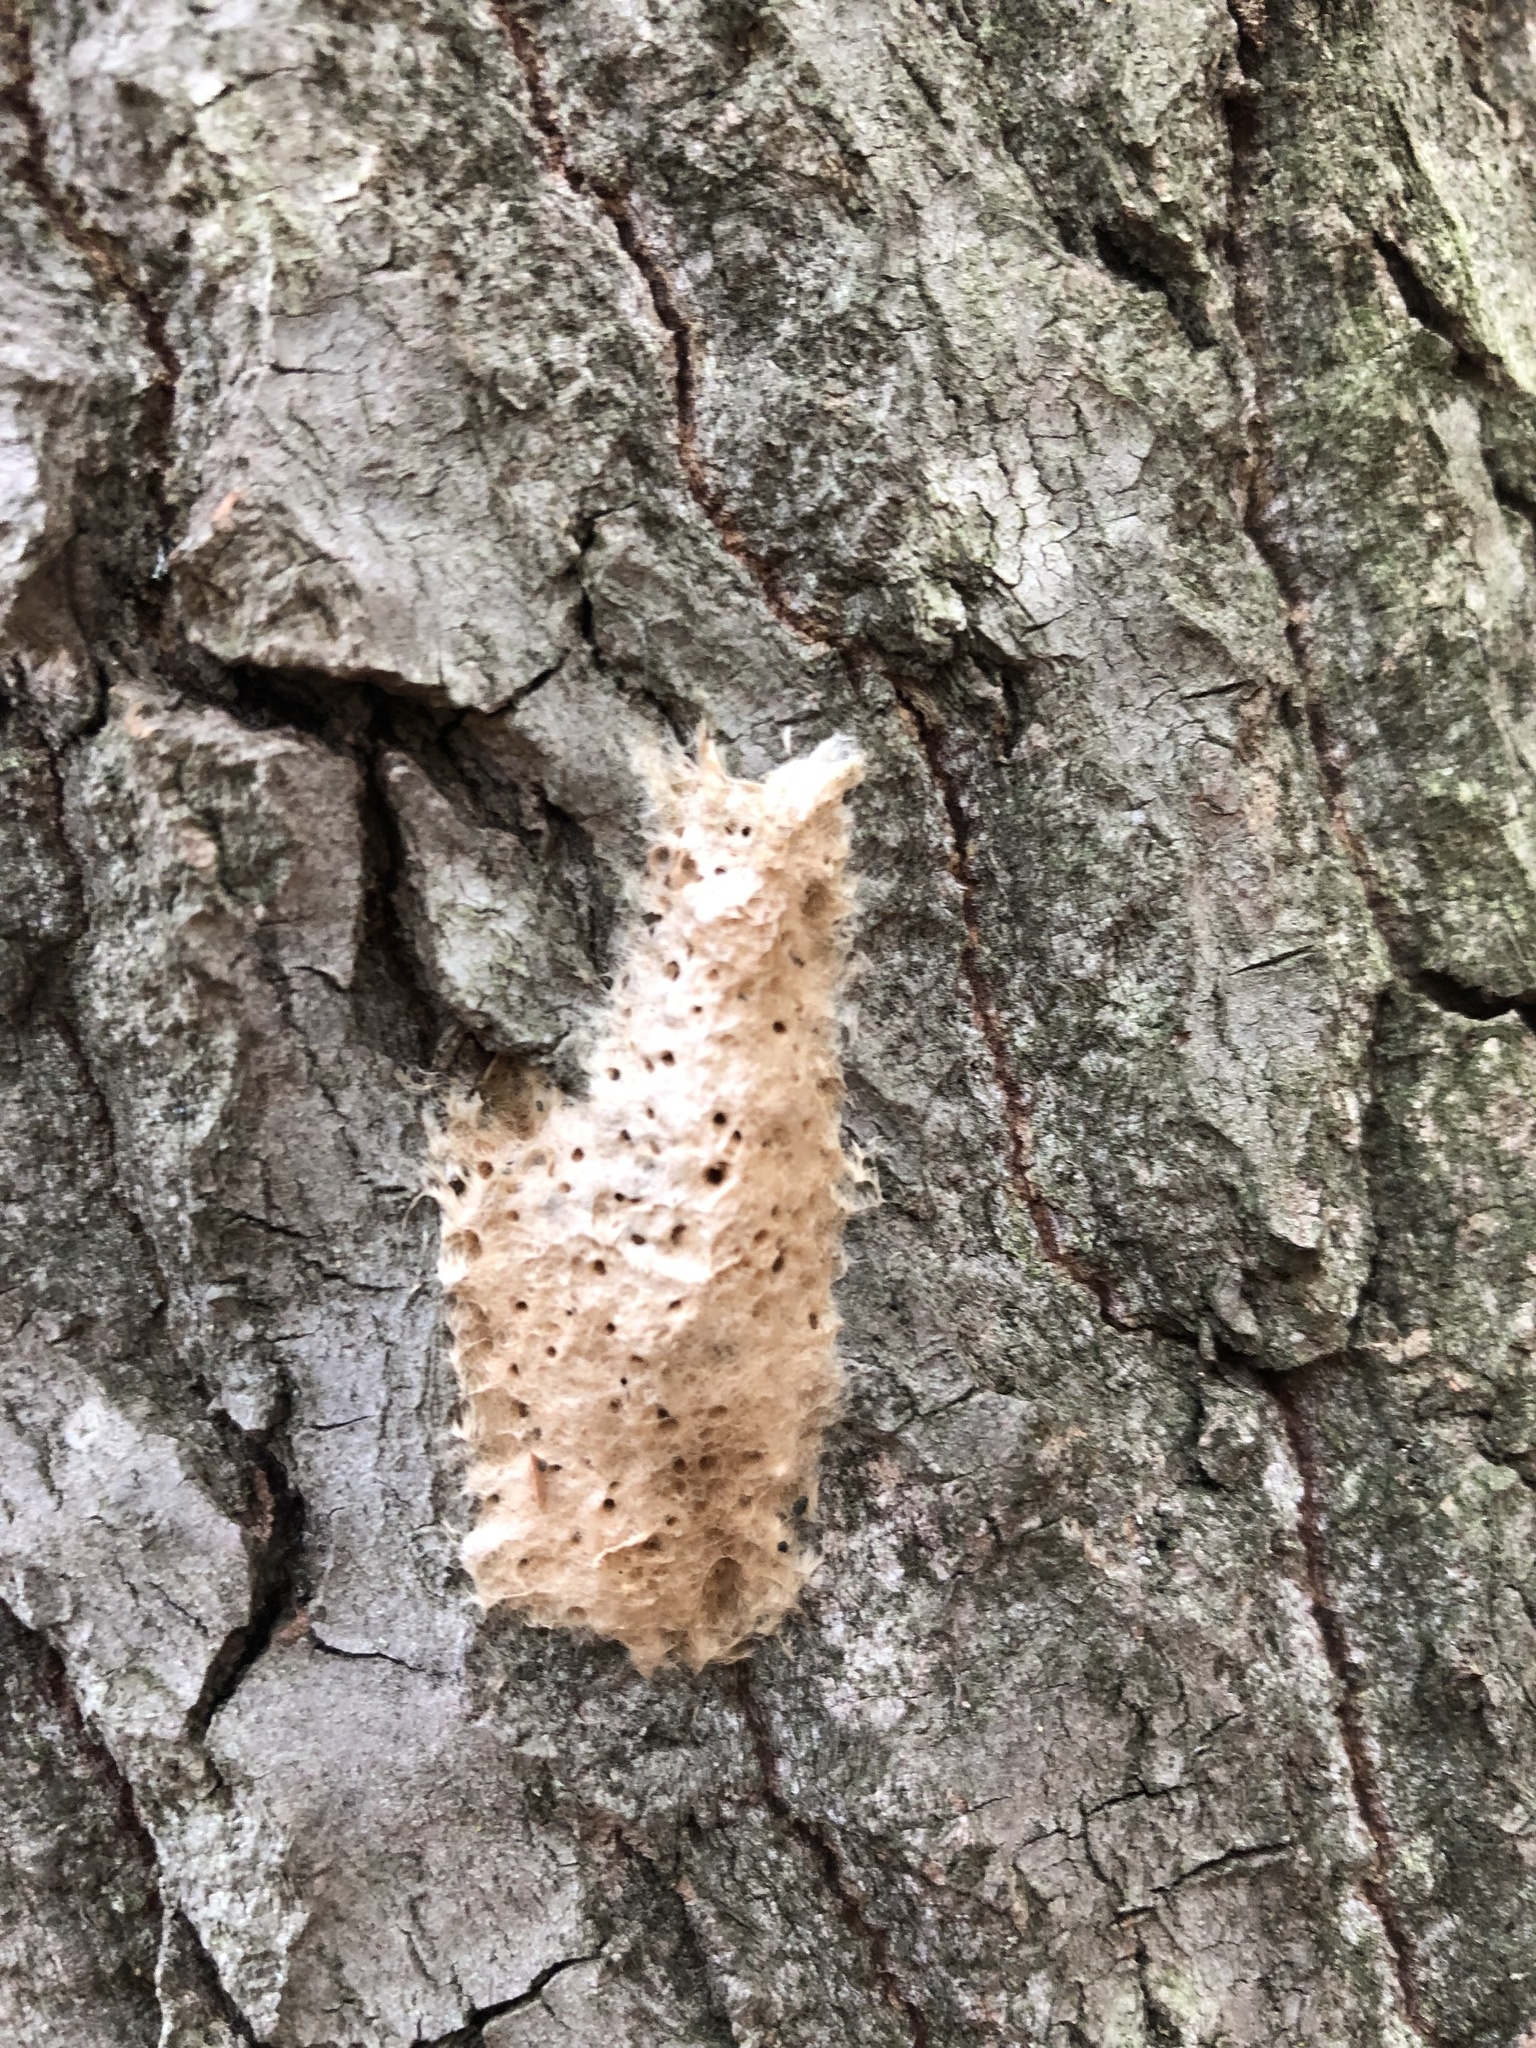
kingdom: Animalia
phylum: Arthropoda
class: Insecta
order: Lepidoptera
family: Erebidae
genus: Lymantria
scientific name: Lymantria dispar
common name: Gypsy moth
